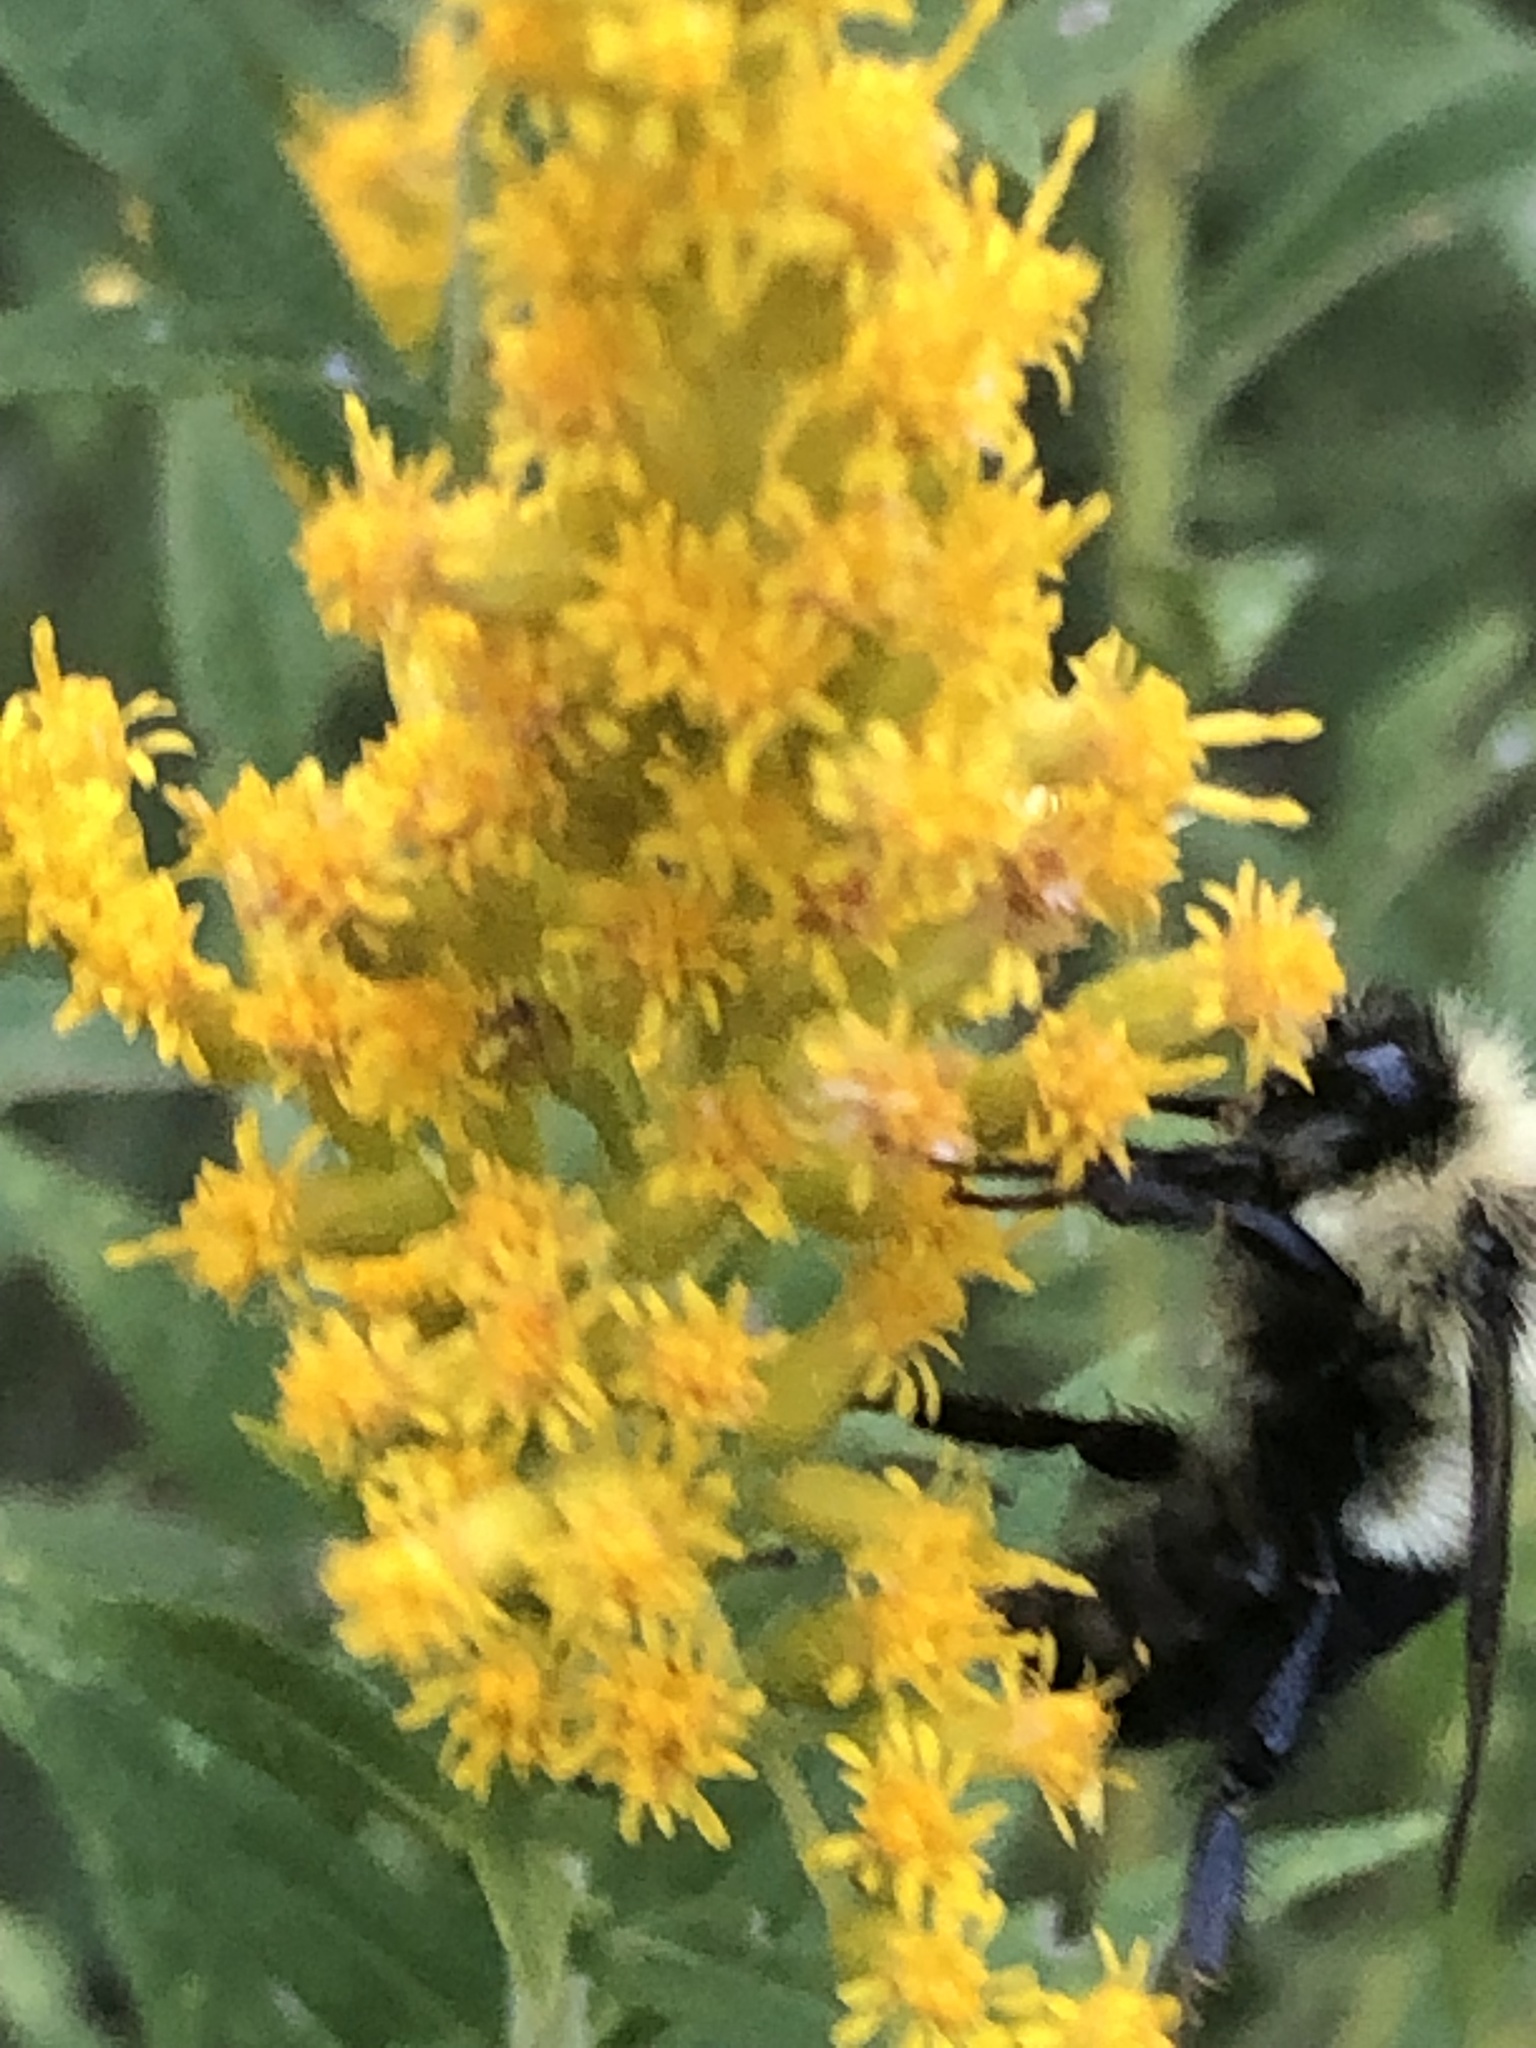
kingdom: Animalia
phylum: Arthropoda
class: Insecta
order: Hymenoptera
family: Apidae
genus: Bombus
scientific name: Bombus impatiens
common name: Common eastern bumble bee
